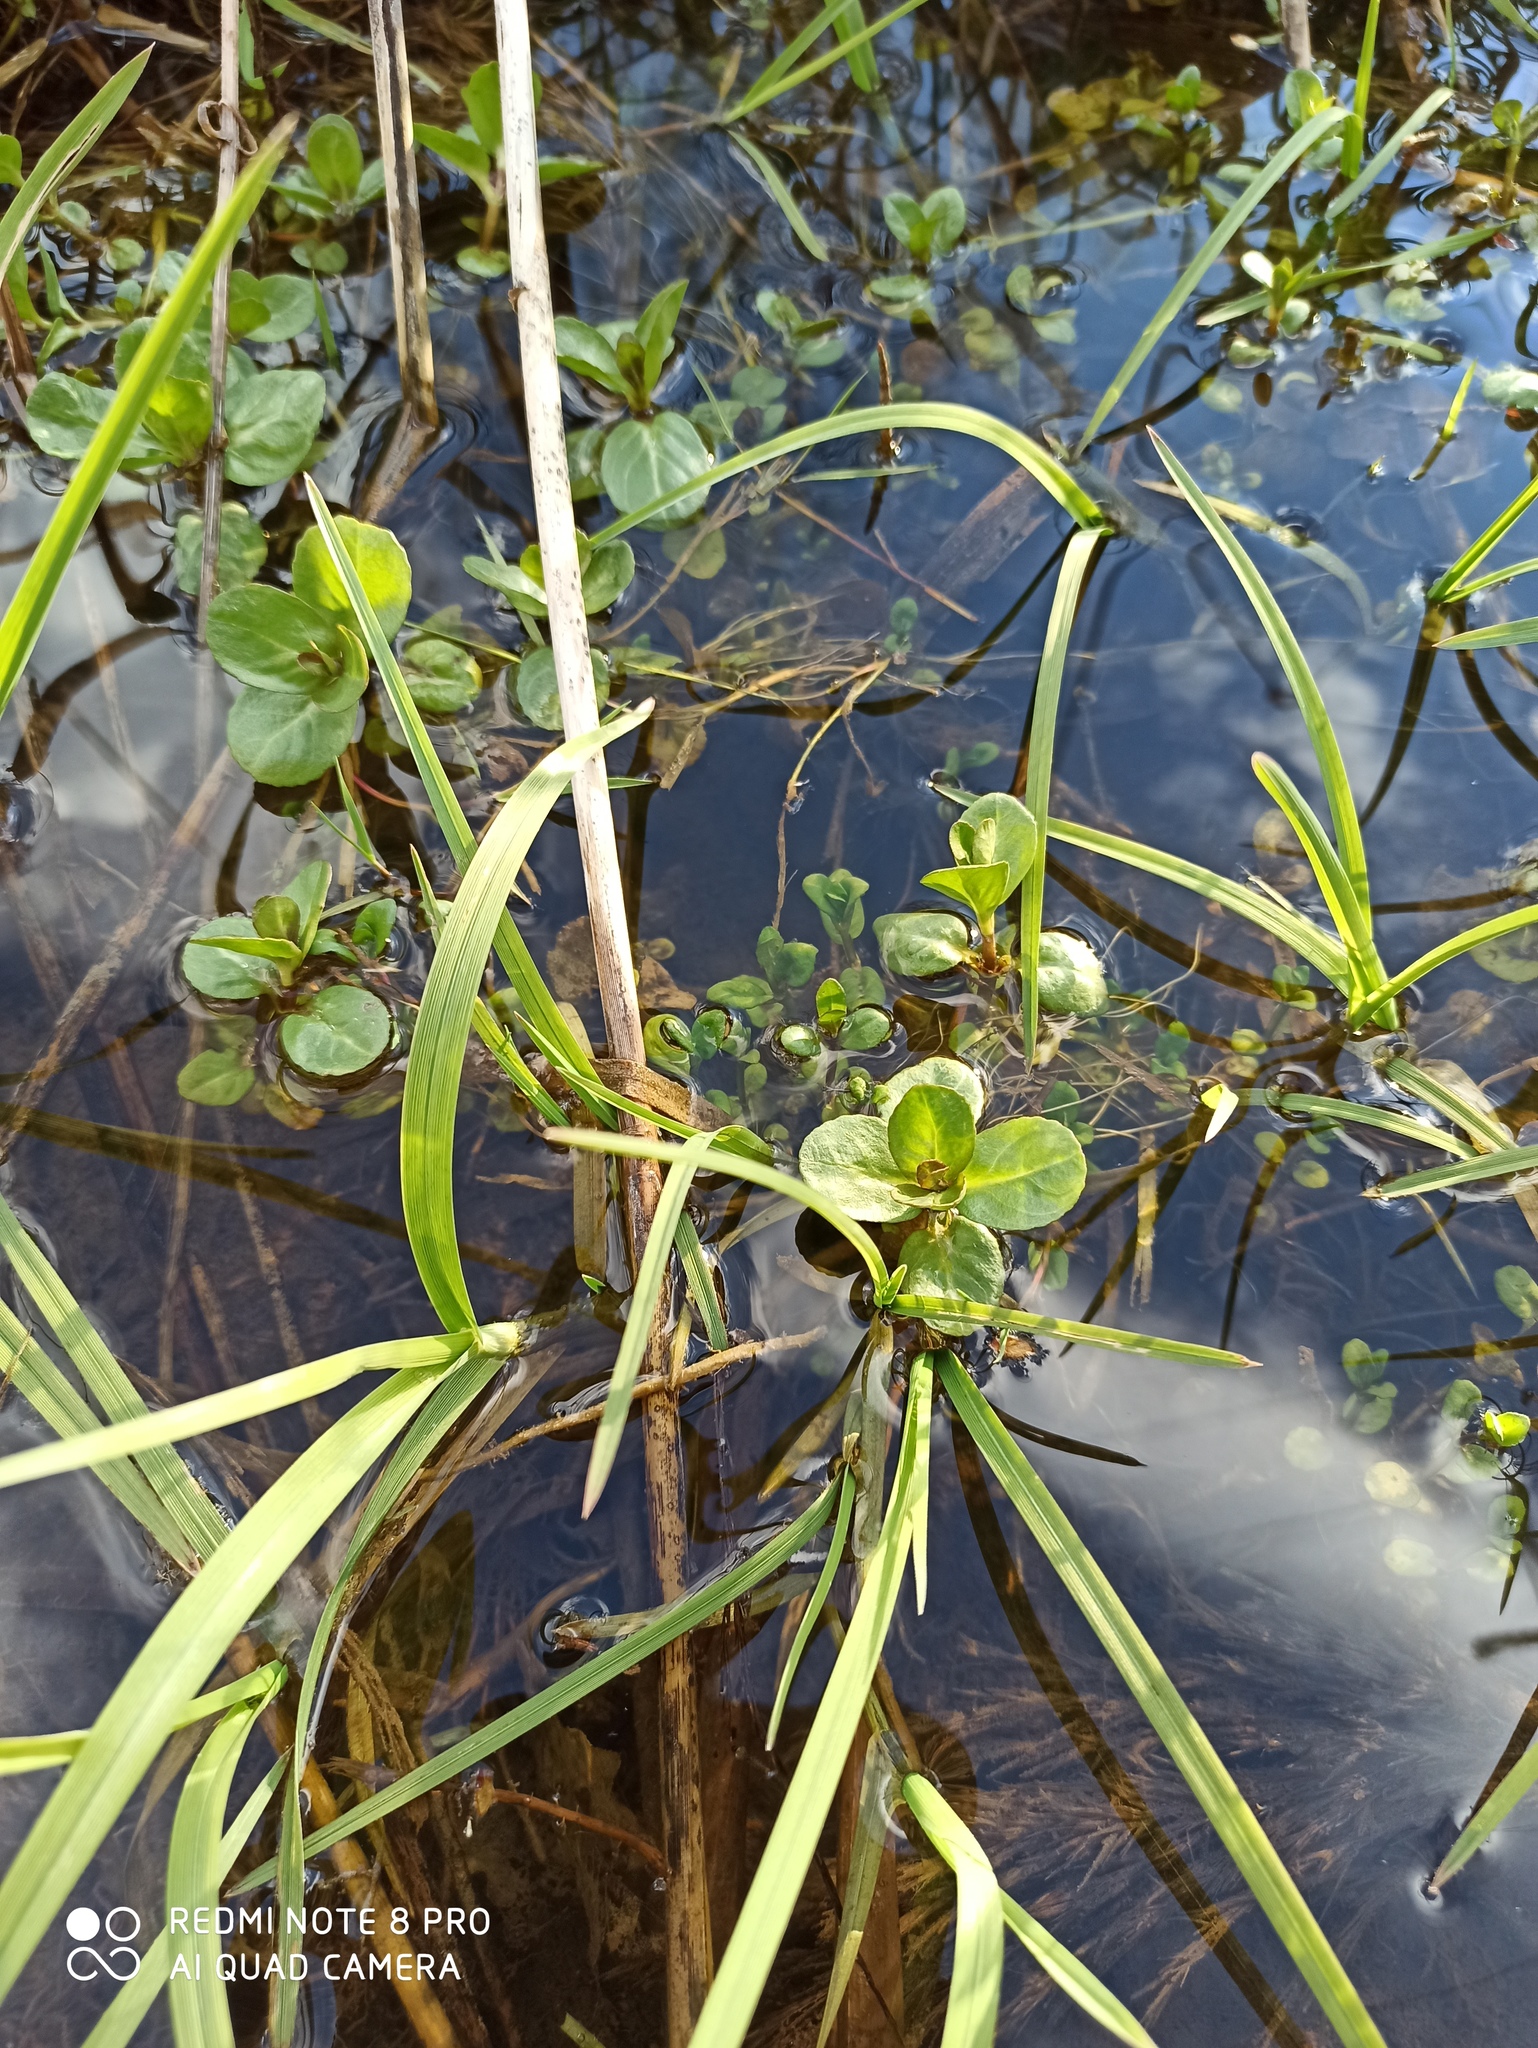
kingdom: Plantae
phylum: Tracheophyta
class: Magnoliopsida
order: Lamiales
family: Plantaginaceae
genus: Veronica
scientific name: Veronica beccabunga
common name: Brooklime
